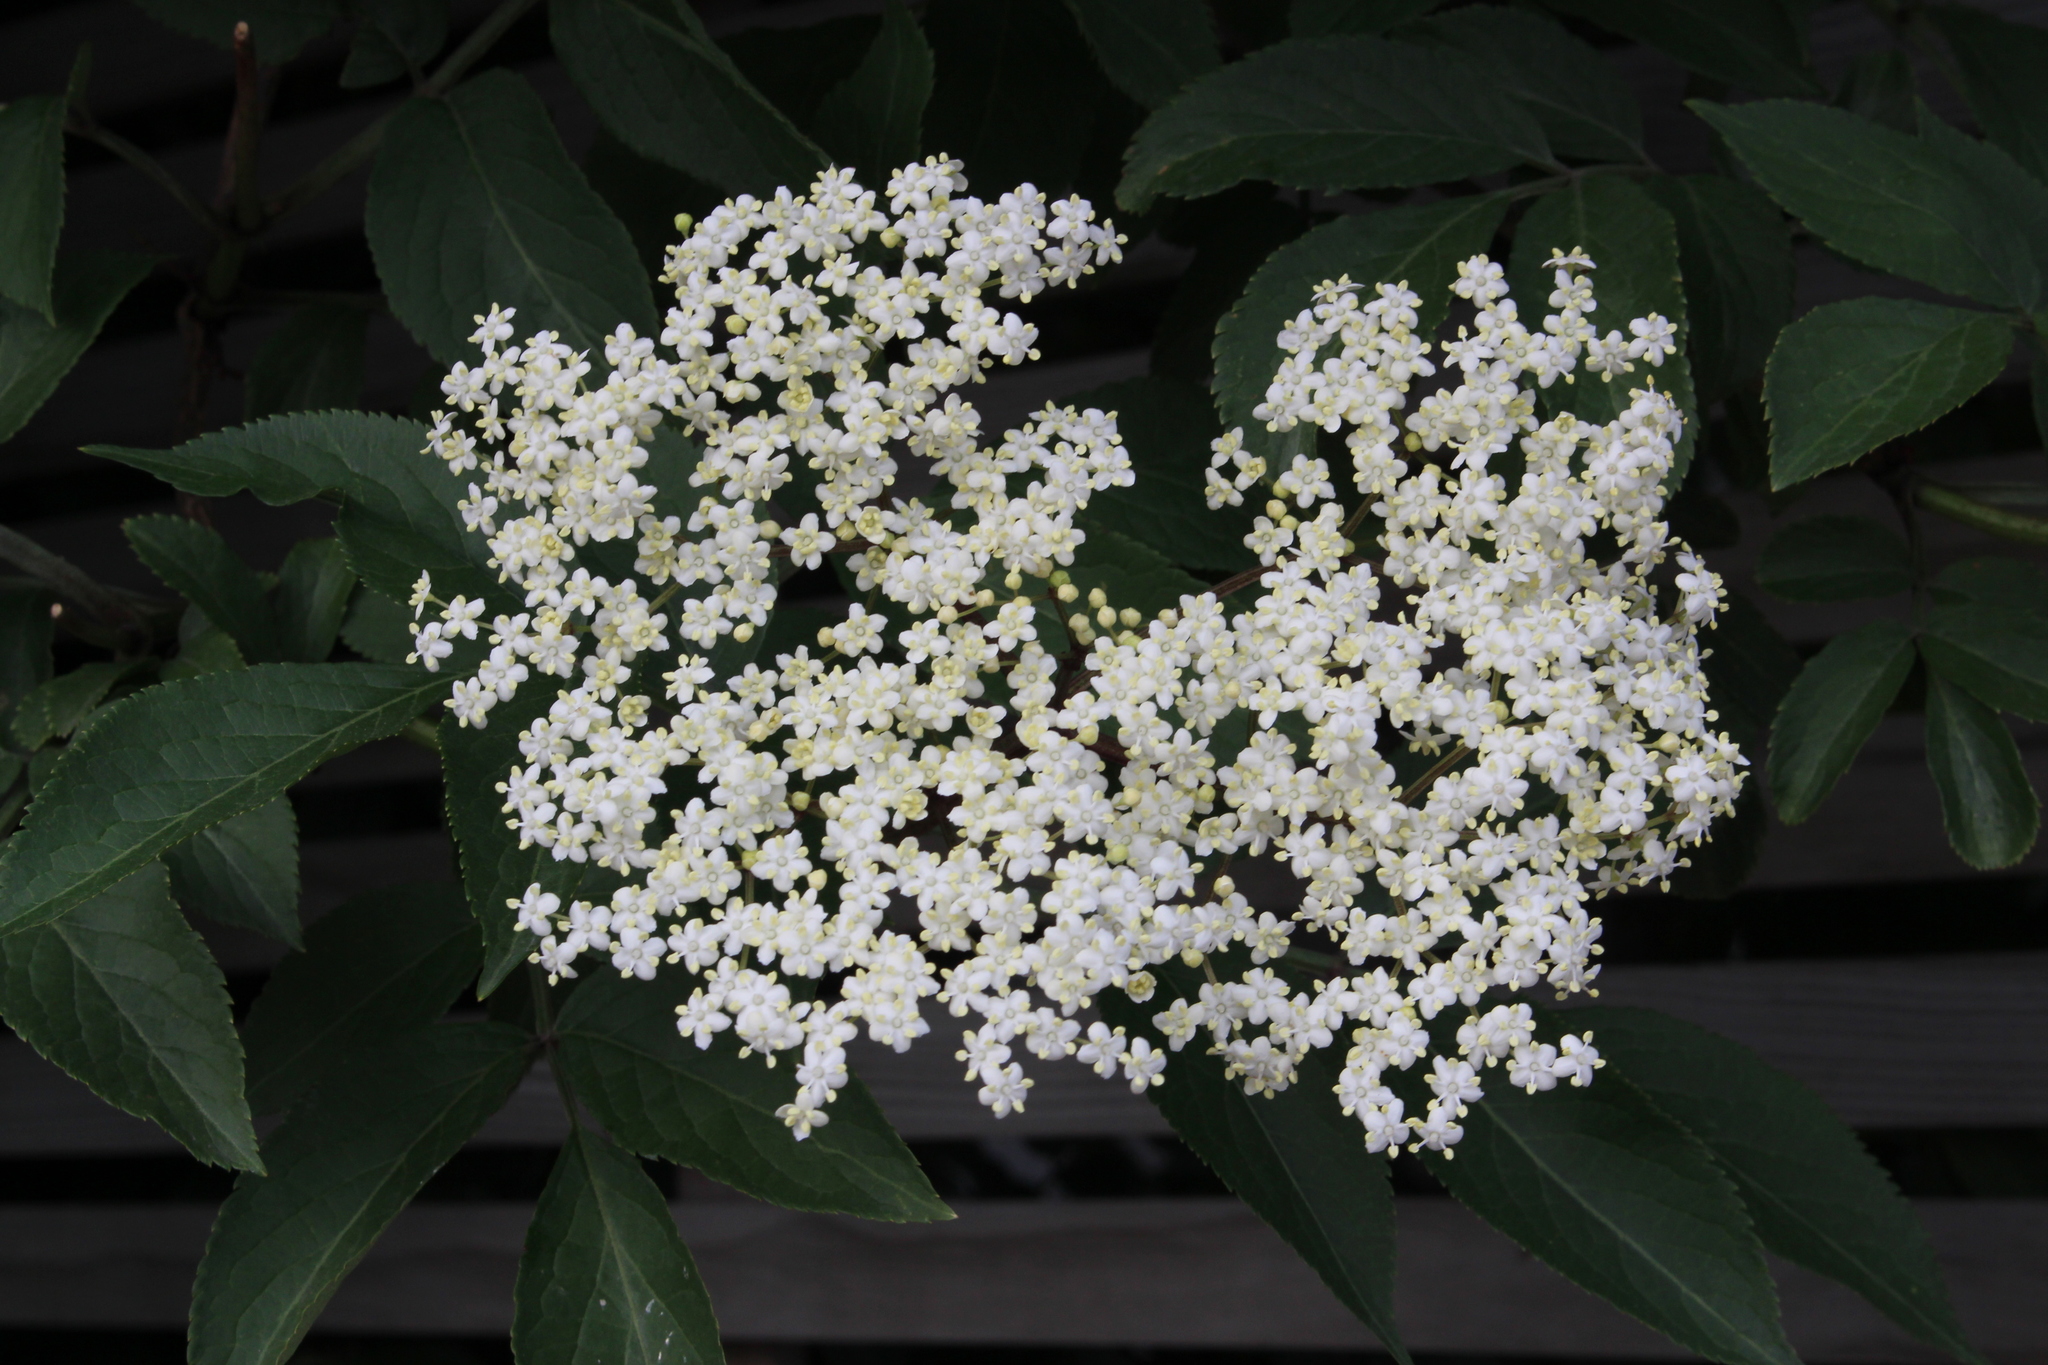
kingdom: Plantae
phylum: Tracheophyta
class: Magnoliopsida
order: Dipsacales
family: Viburnaceae
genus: Sambucus
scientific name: Sambucus nigra
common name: Elder
